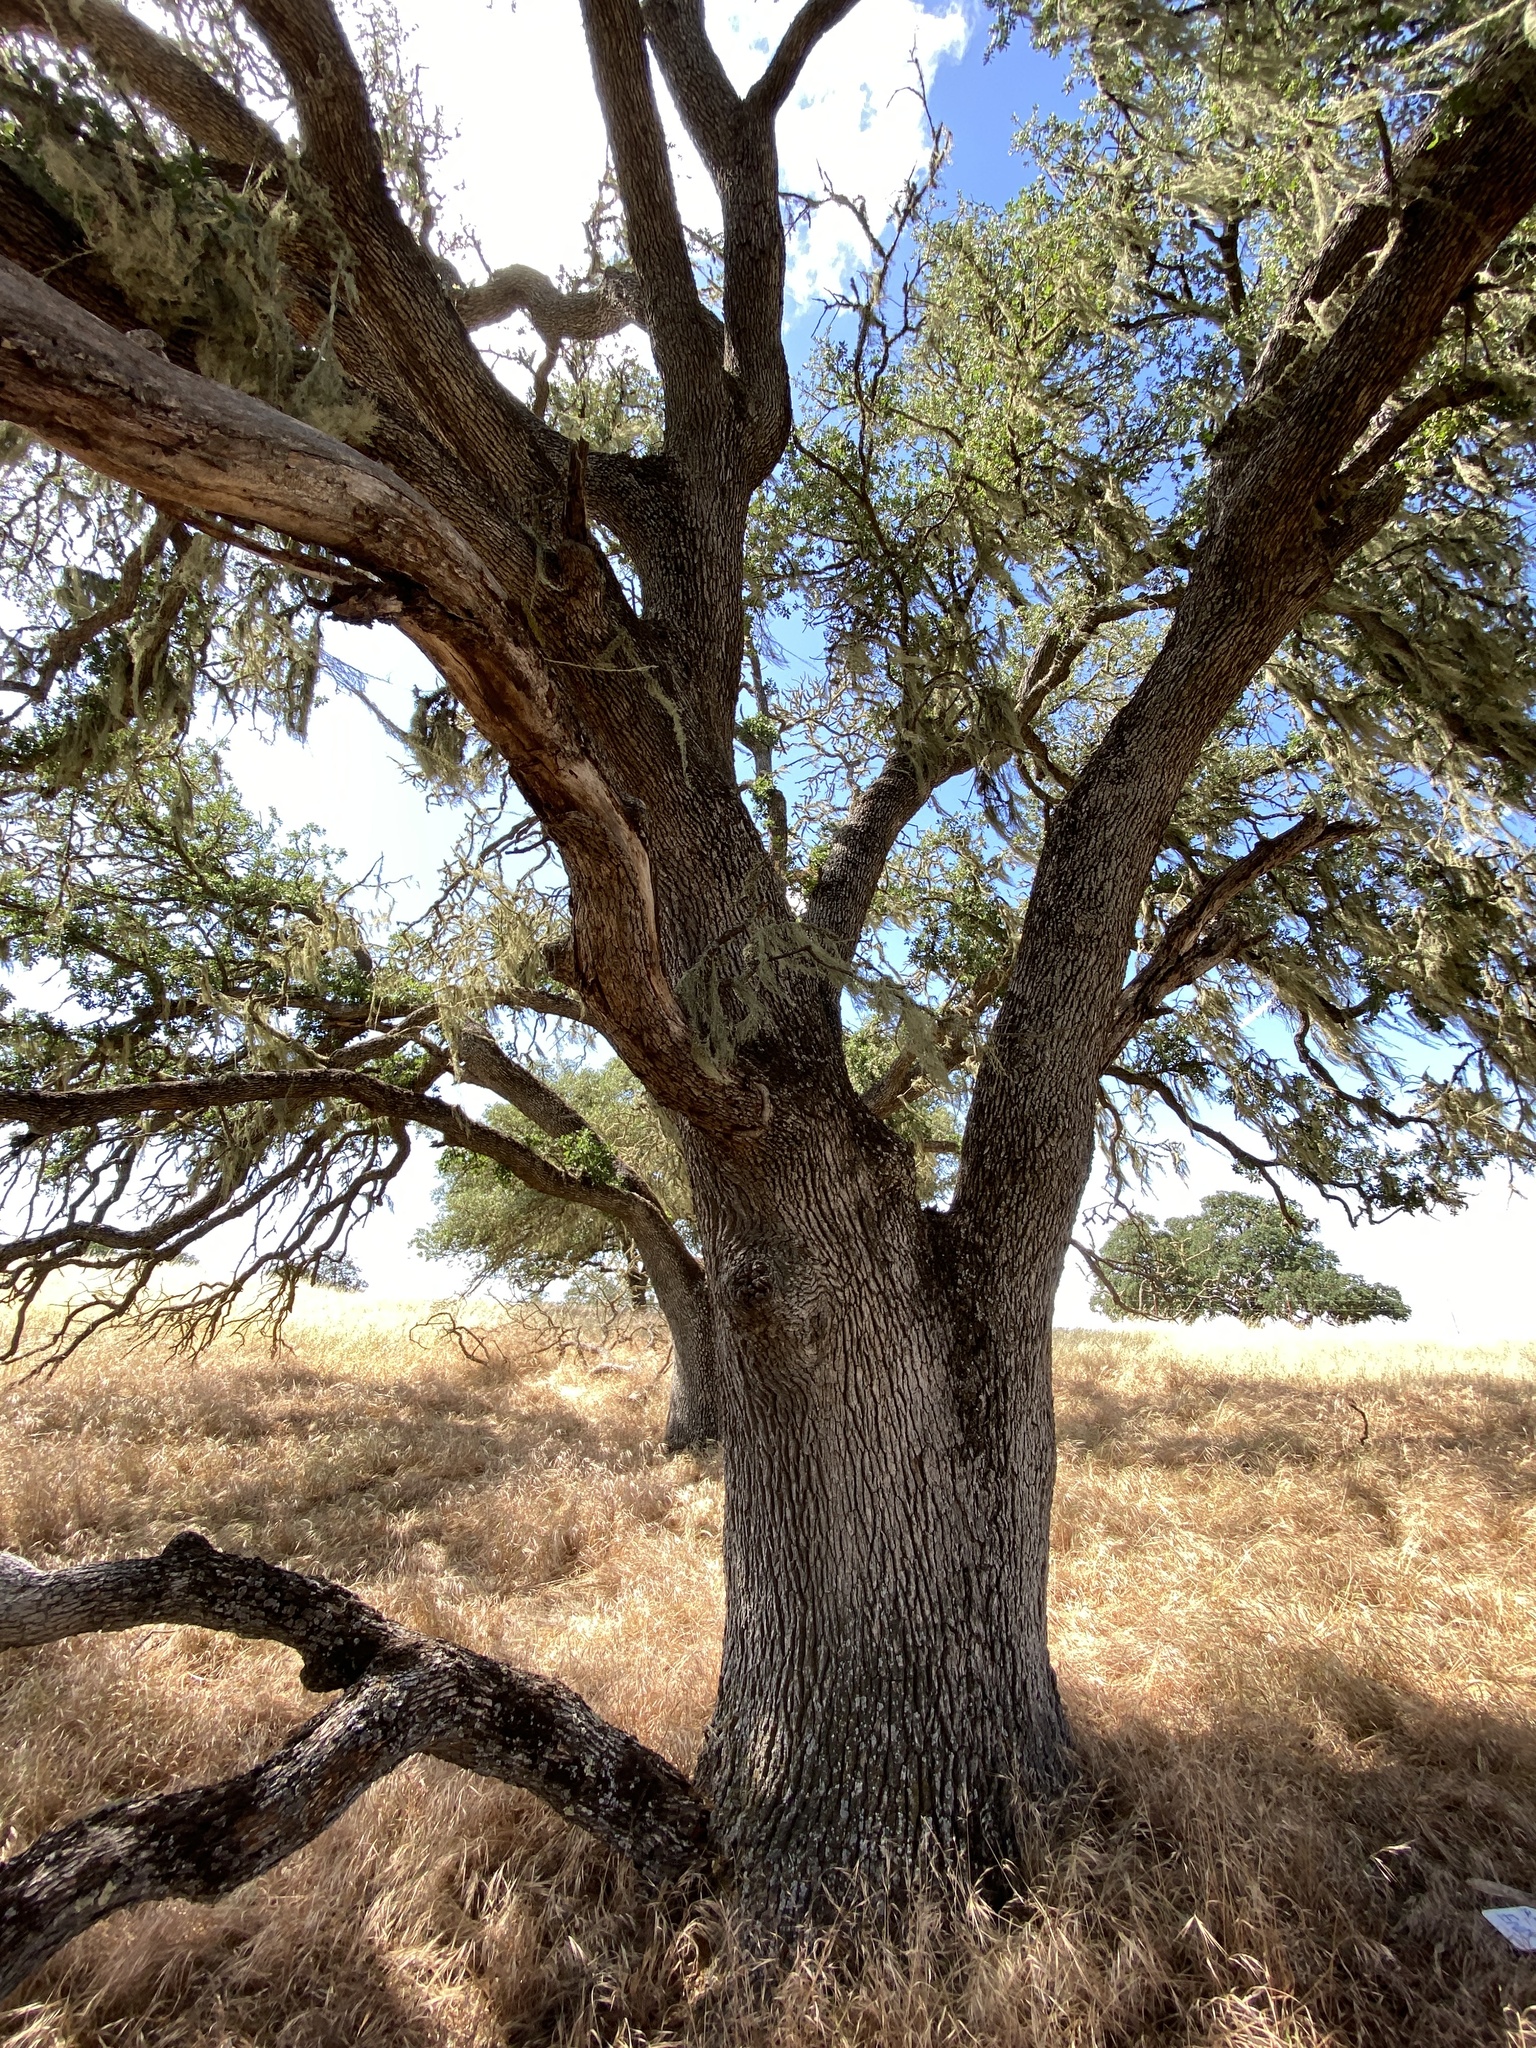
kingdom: Plantae
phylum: Tracheophyta
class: Magnoliopsida
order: Fagales
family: Fagaceae
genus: Quercus
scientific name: Quercus douglasii
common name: Blue oak
